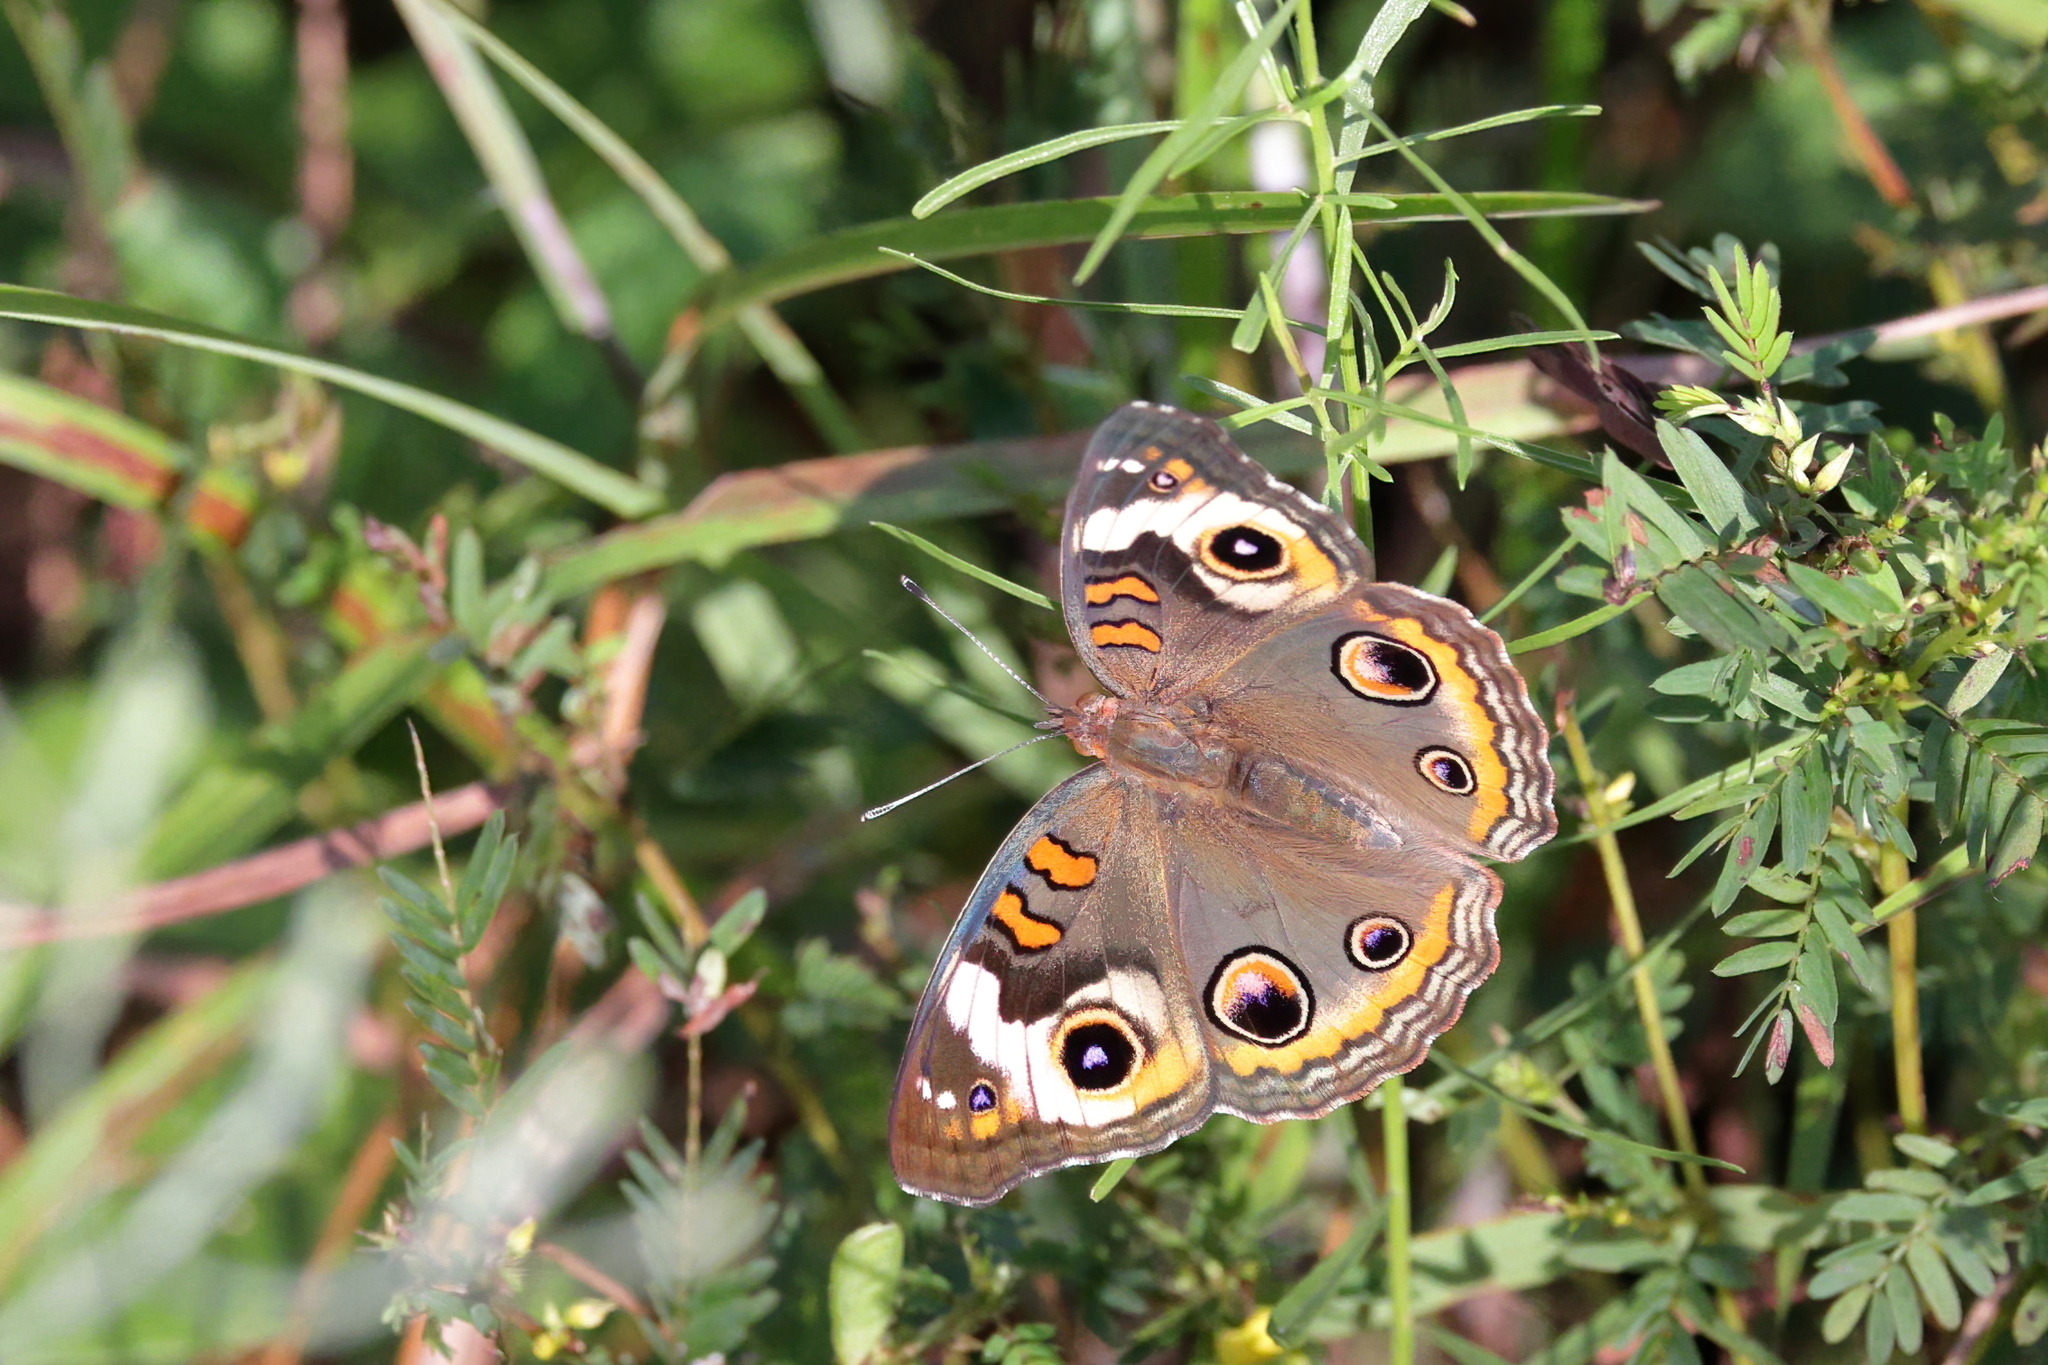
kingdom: Animalia
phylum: Arthropoda
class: Insecta
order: Lepidoptera
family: Nymphalidae
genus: Junonia
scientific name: Junonia coenia
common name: Common buckeye
